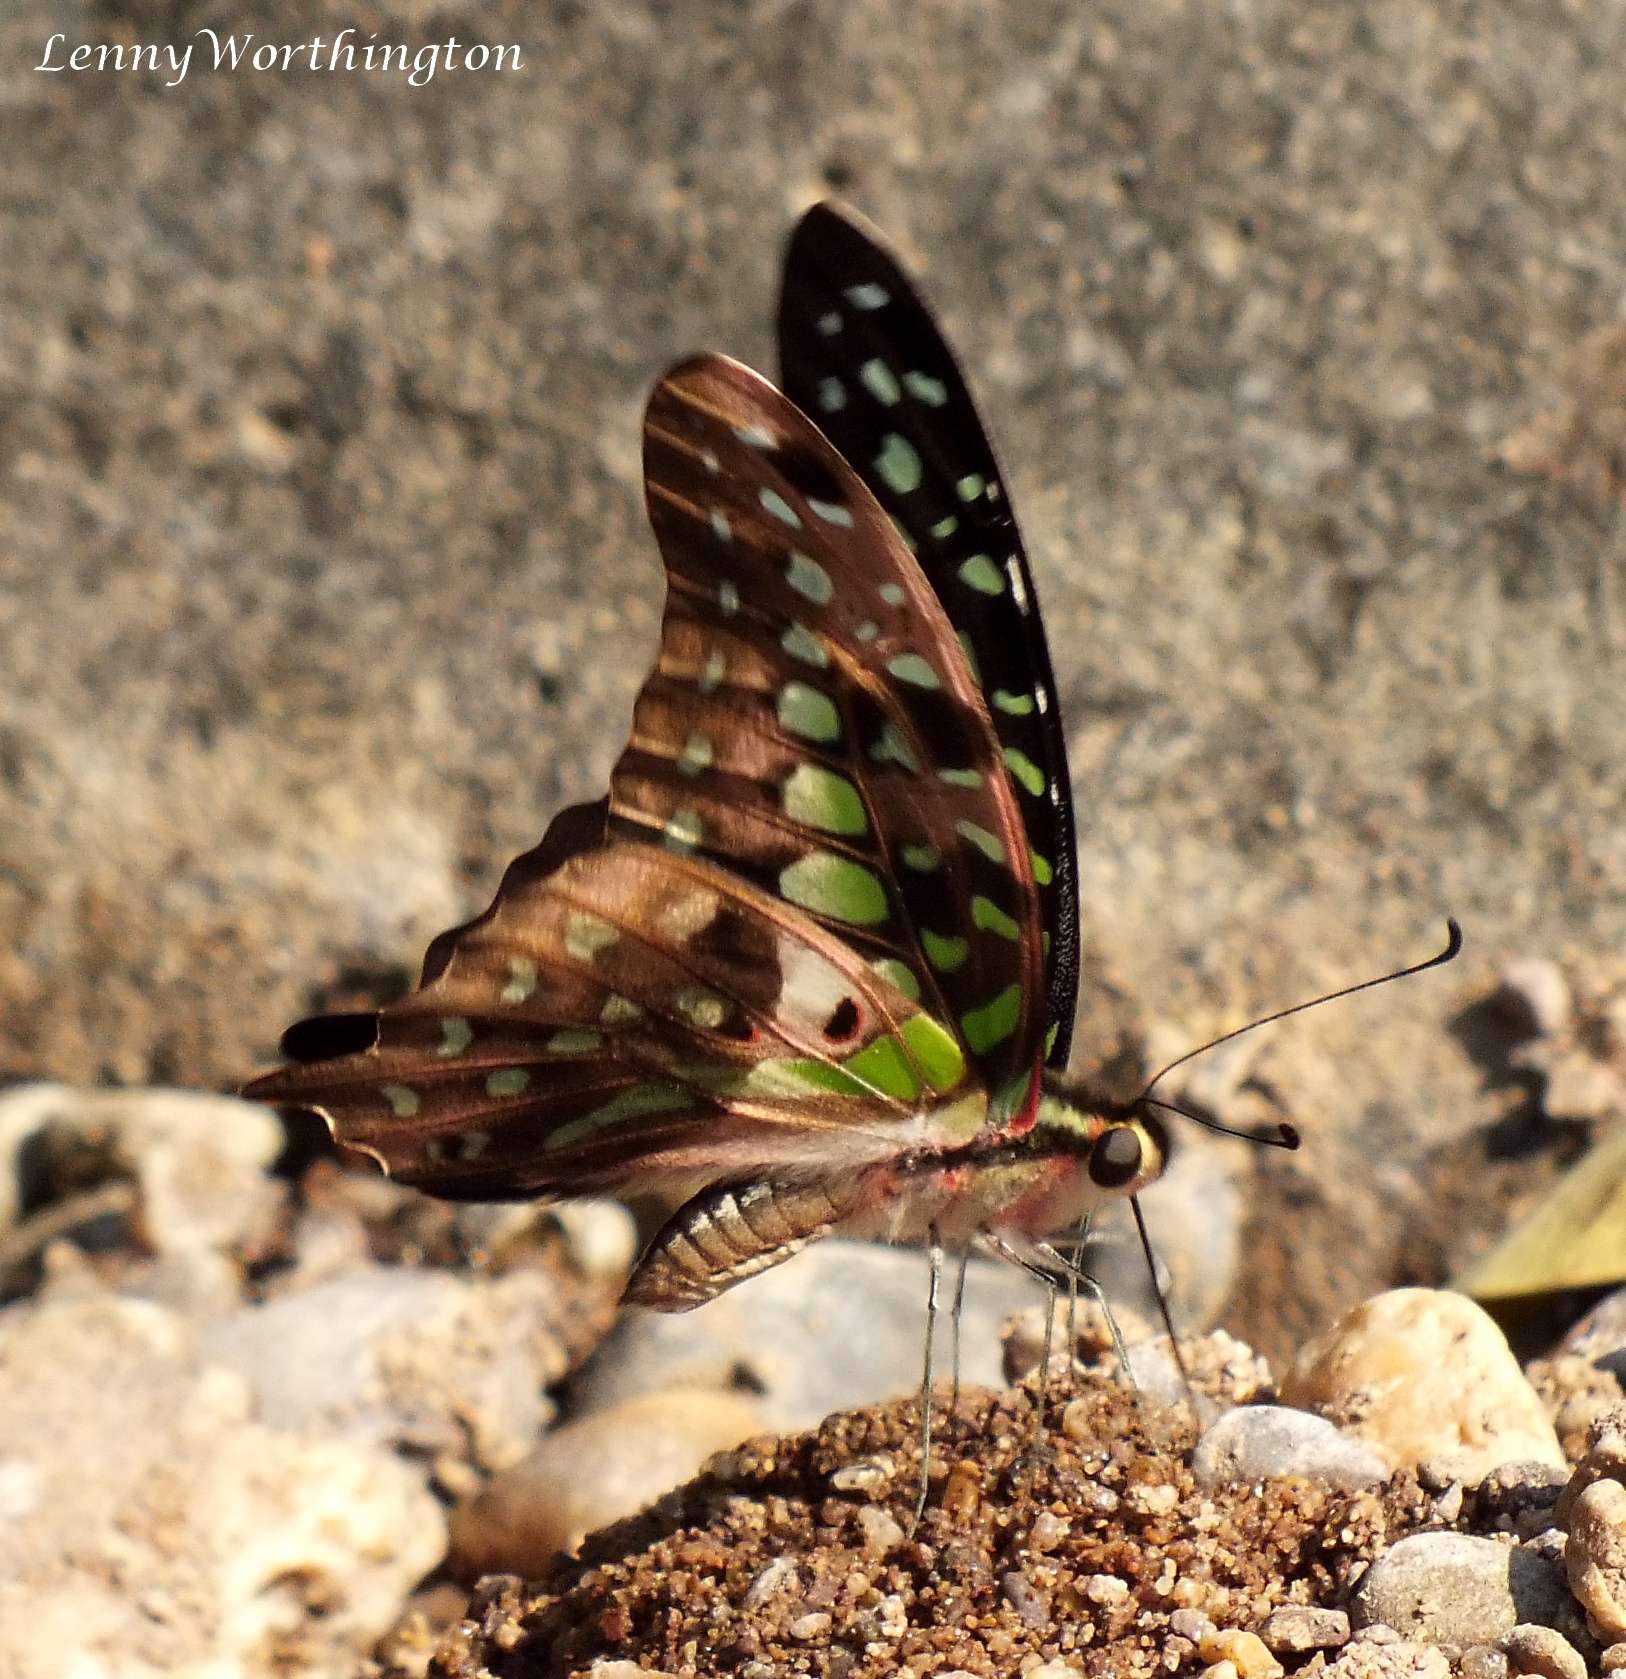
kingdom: Animalia
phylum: Arthropoda
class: Insecta
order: Lepidoptera
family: Papilionidae
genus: Graphium
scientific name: Graphium agamemnon
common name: Tailed jay
